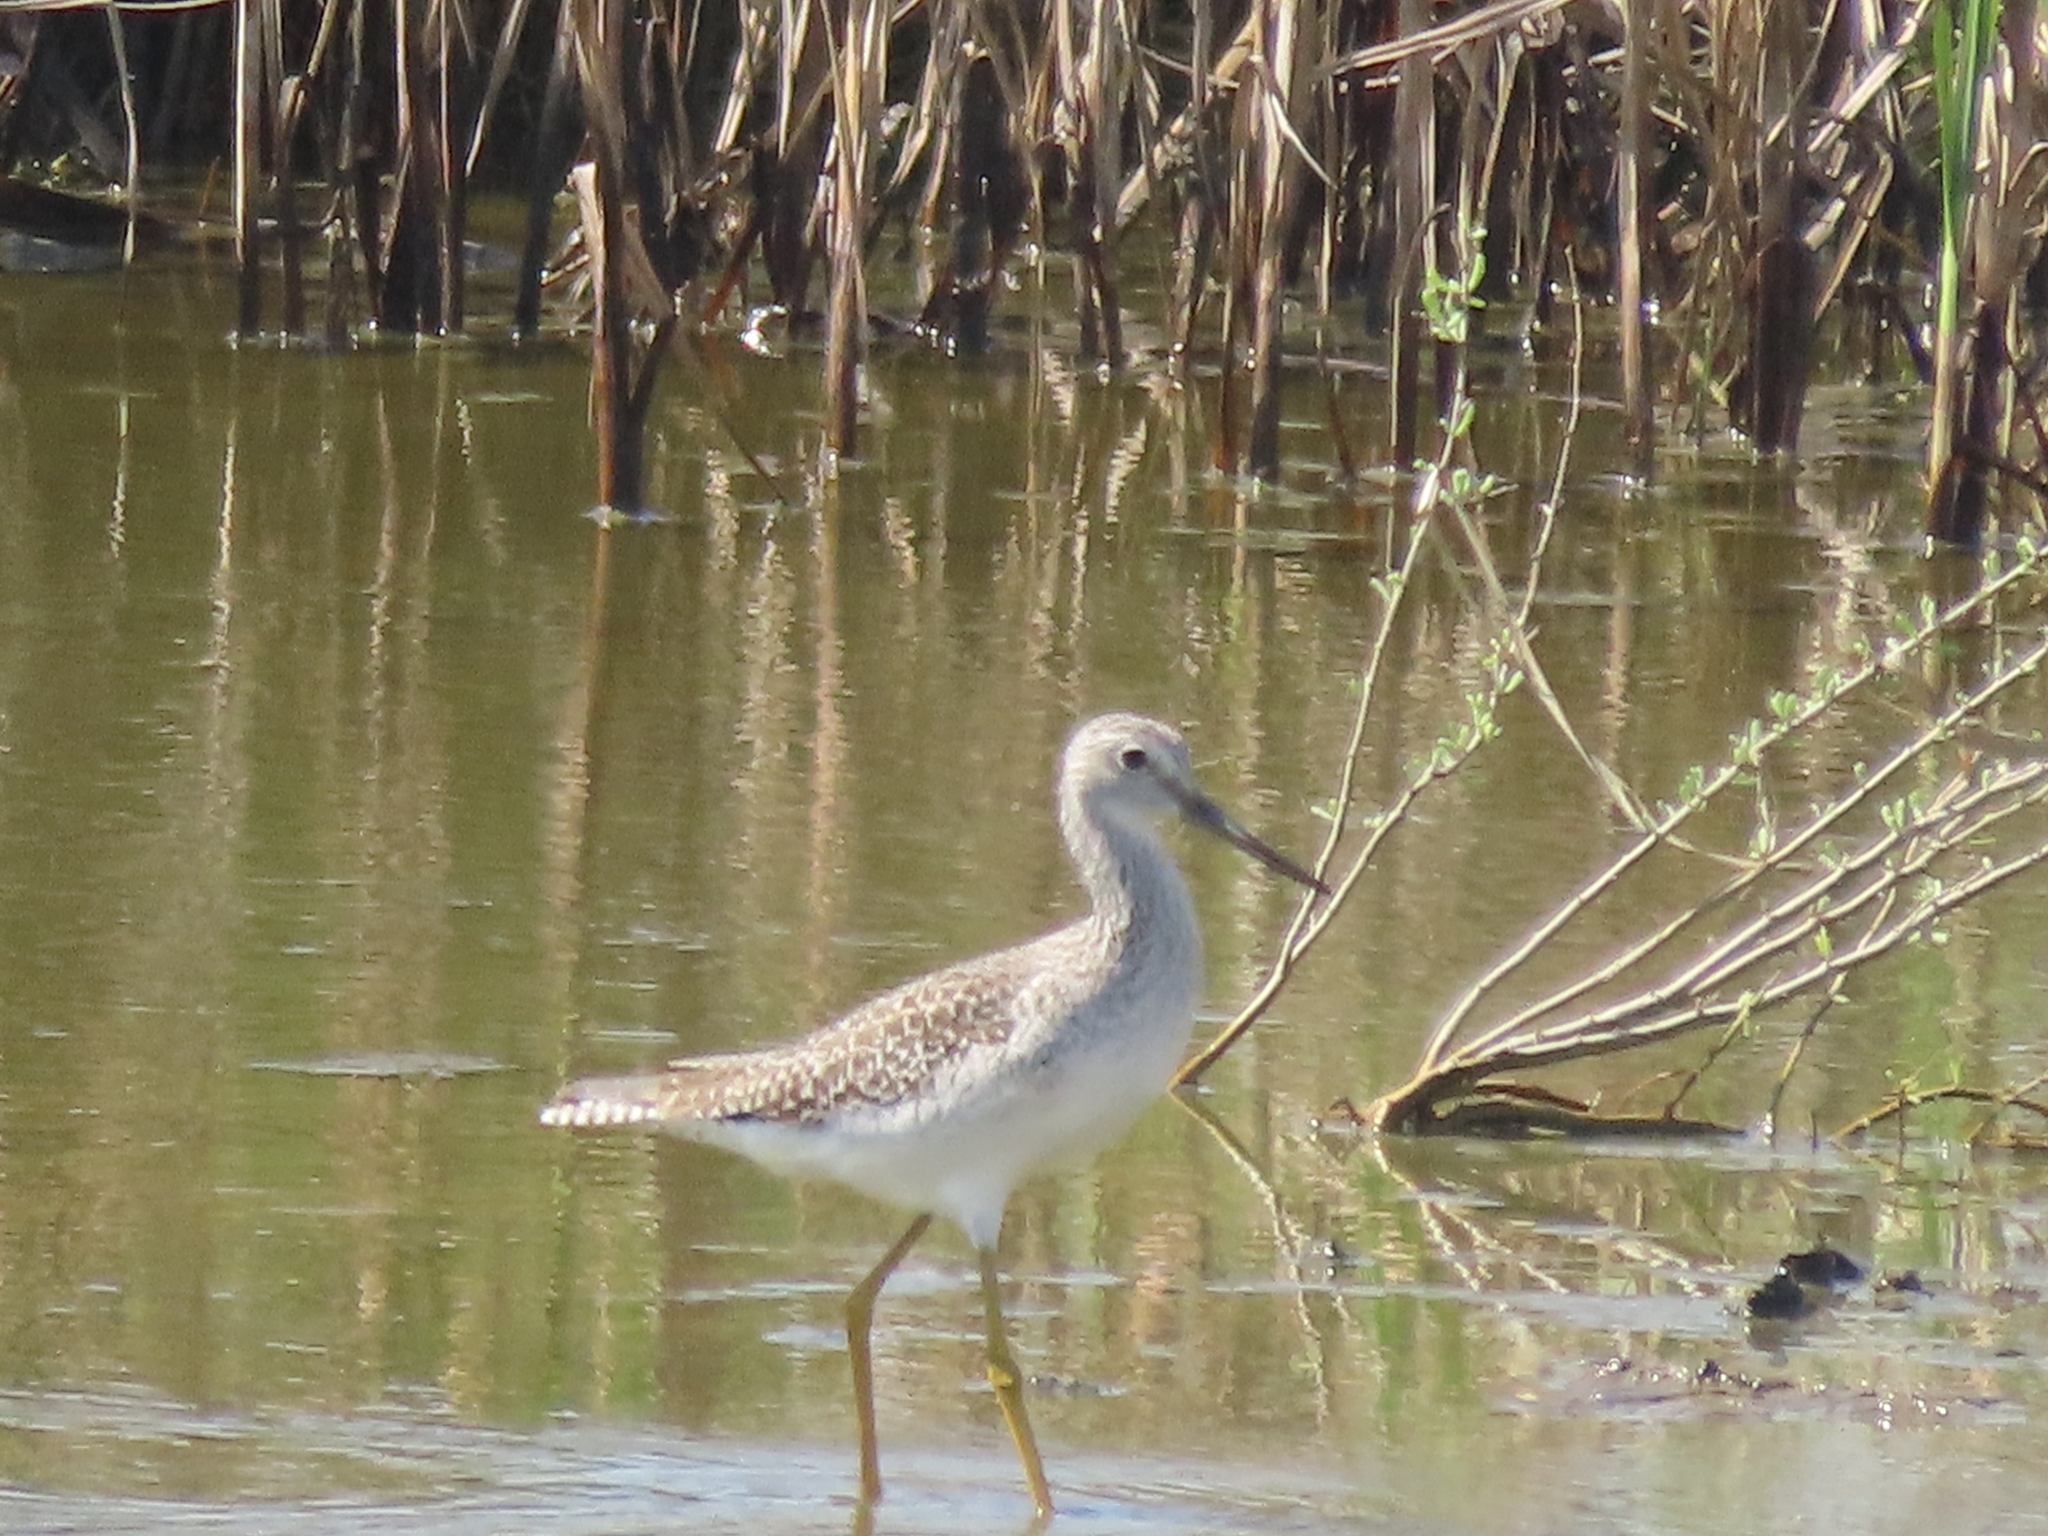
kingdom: Animalia
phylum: Chordata
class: Aves
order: Charadriiformes
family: Scolopacidae
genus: Tringa
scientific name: Tringa melanoleuca
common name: Greater yellowlegs
